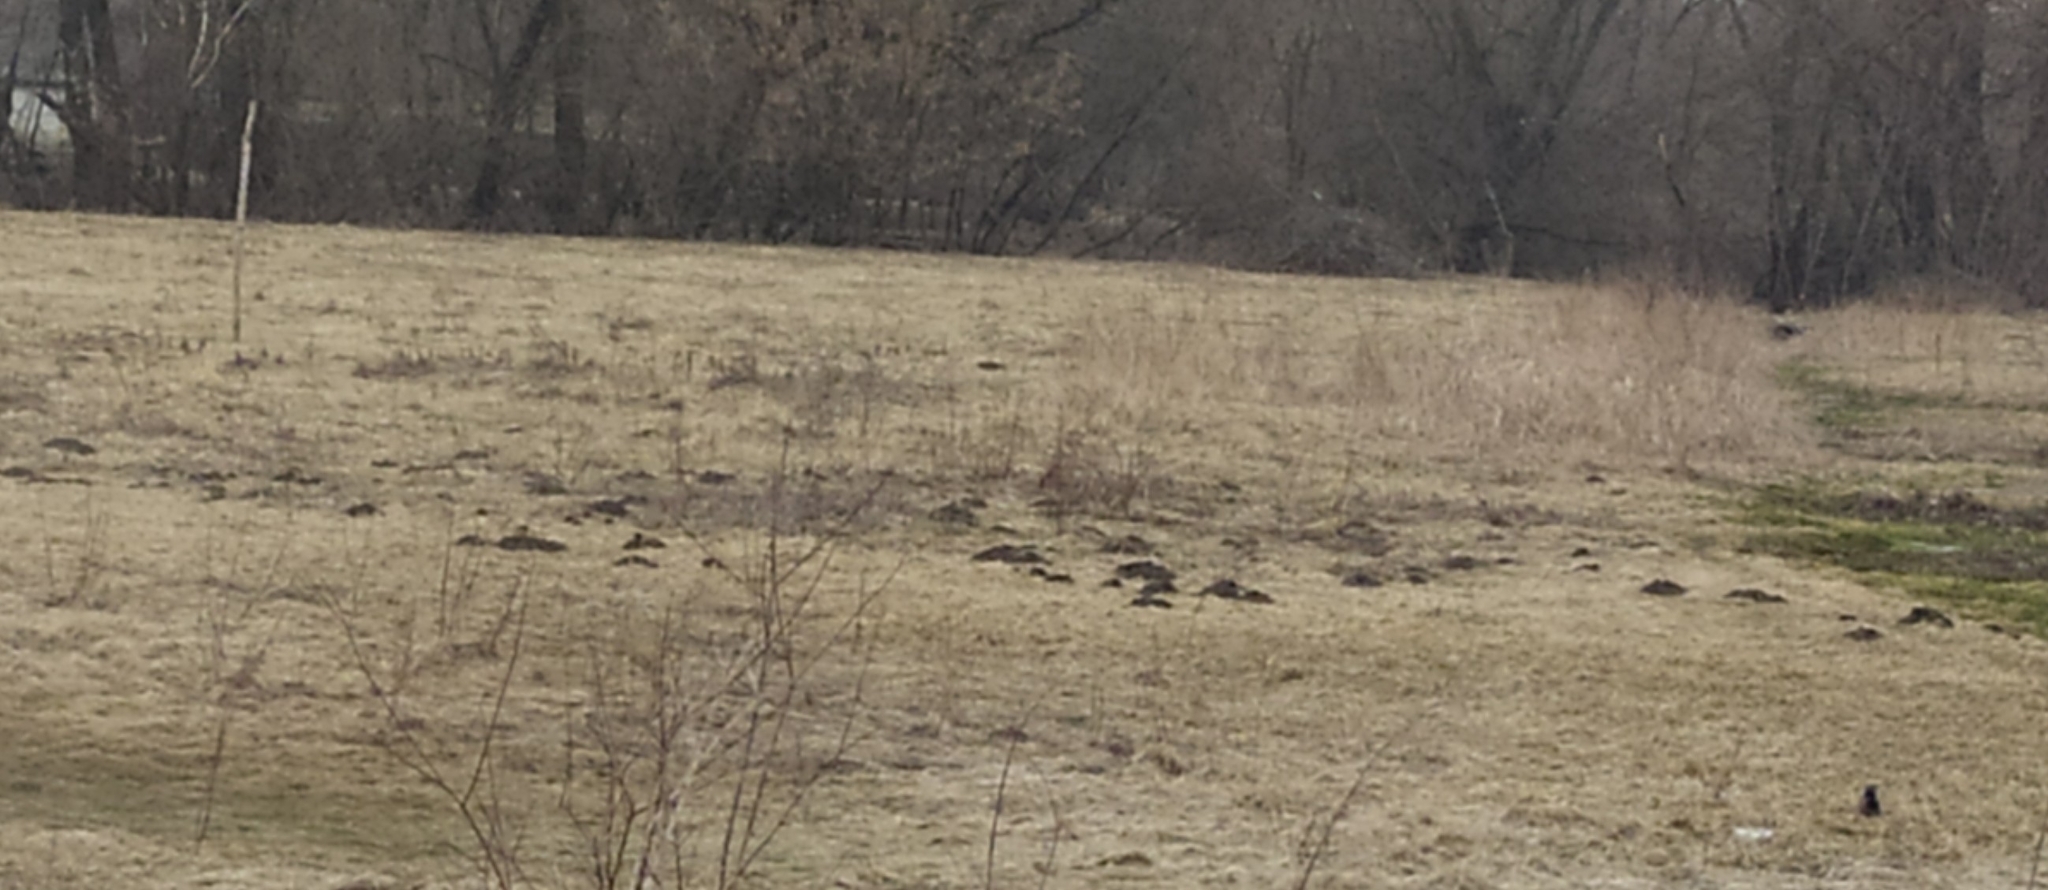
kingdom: Animalia
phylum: Chordata
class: Mammalia
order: Soricomorpha
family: Talpidae
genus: Talpa
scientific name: Talpa europaea
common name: European mole
